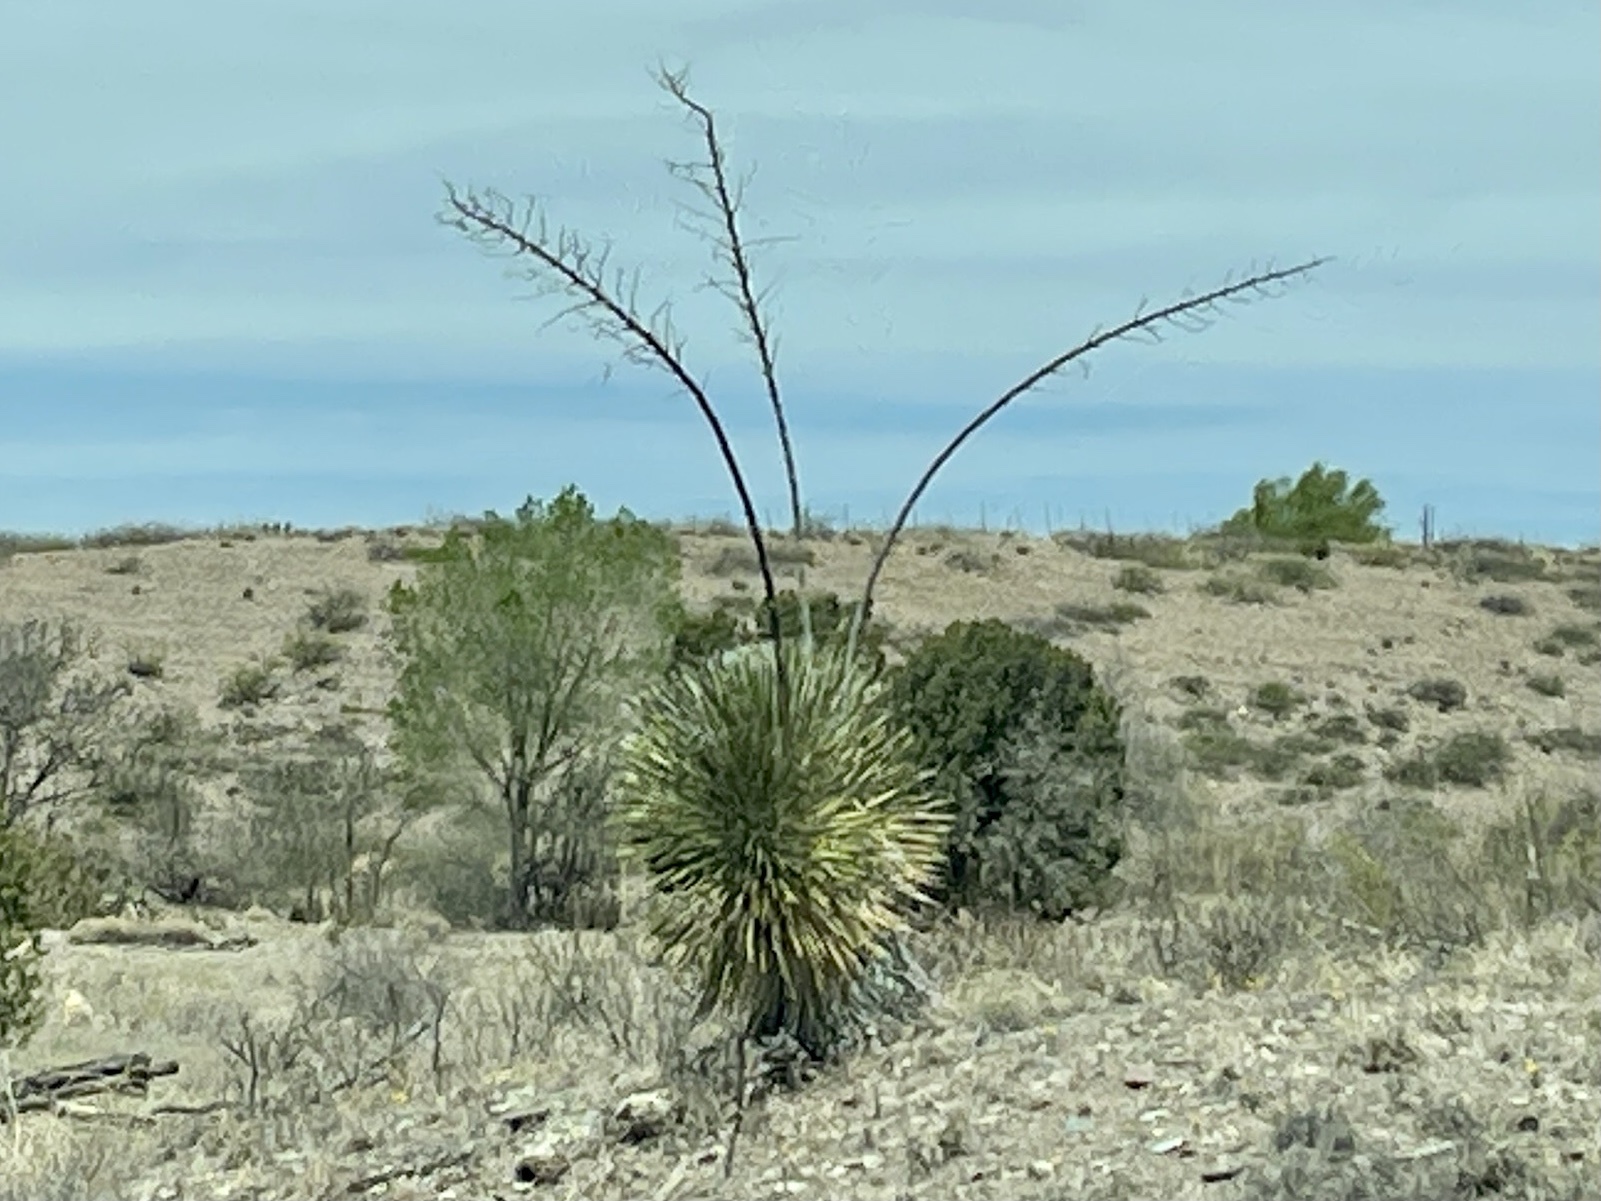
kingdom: Plantae
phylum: Tracheophyta
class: Liliopsida
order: Asparagales
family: Asparagaceae
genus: Yucca
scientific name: Yucca elata
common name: Palmella
